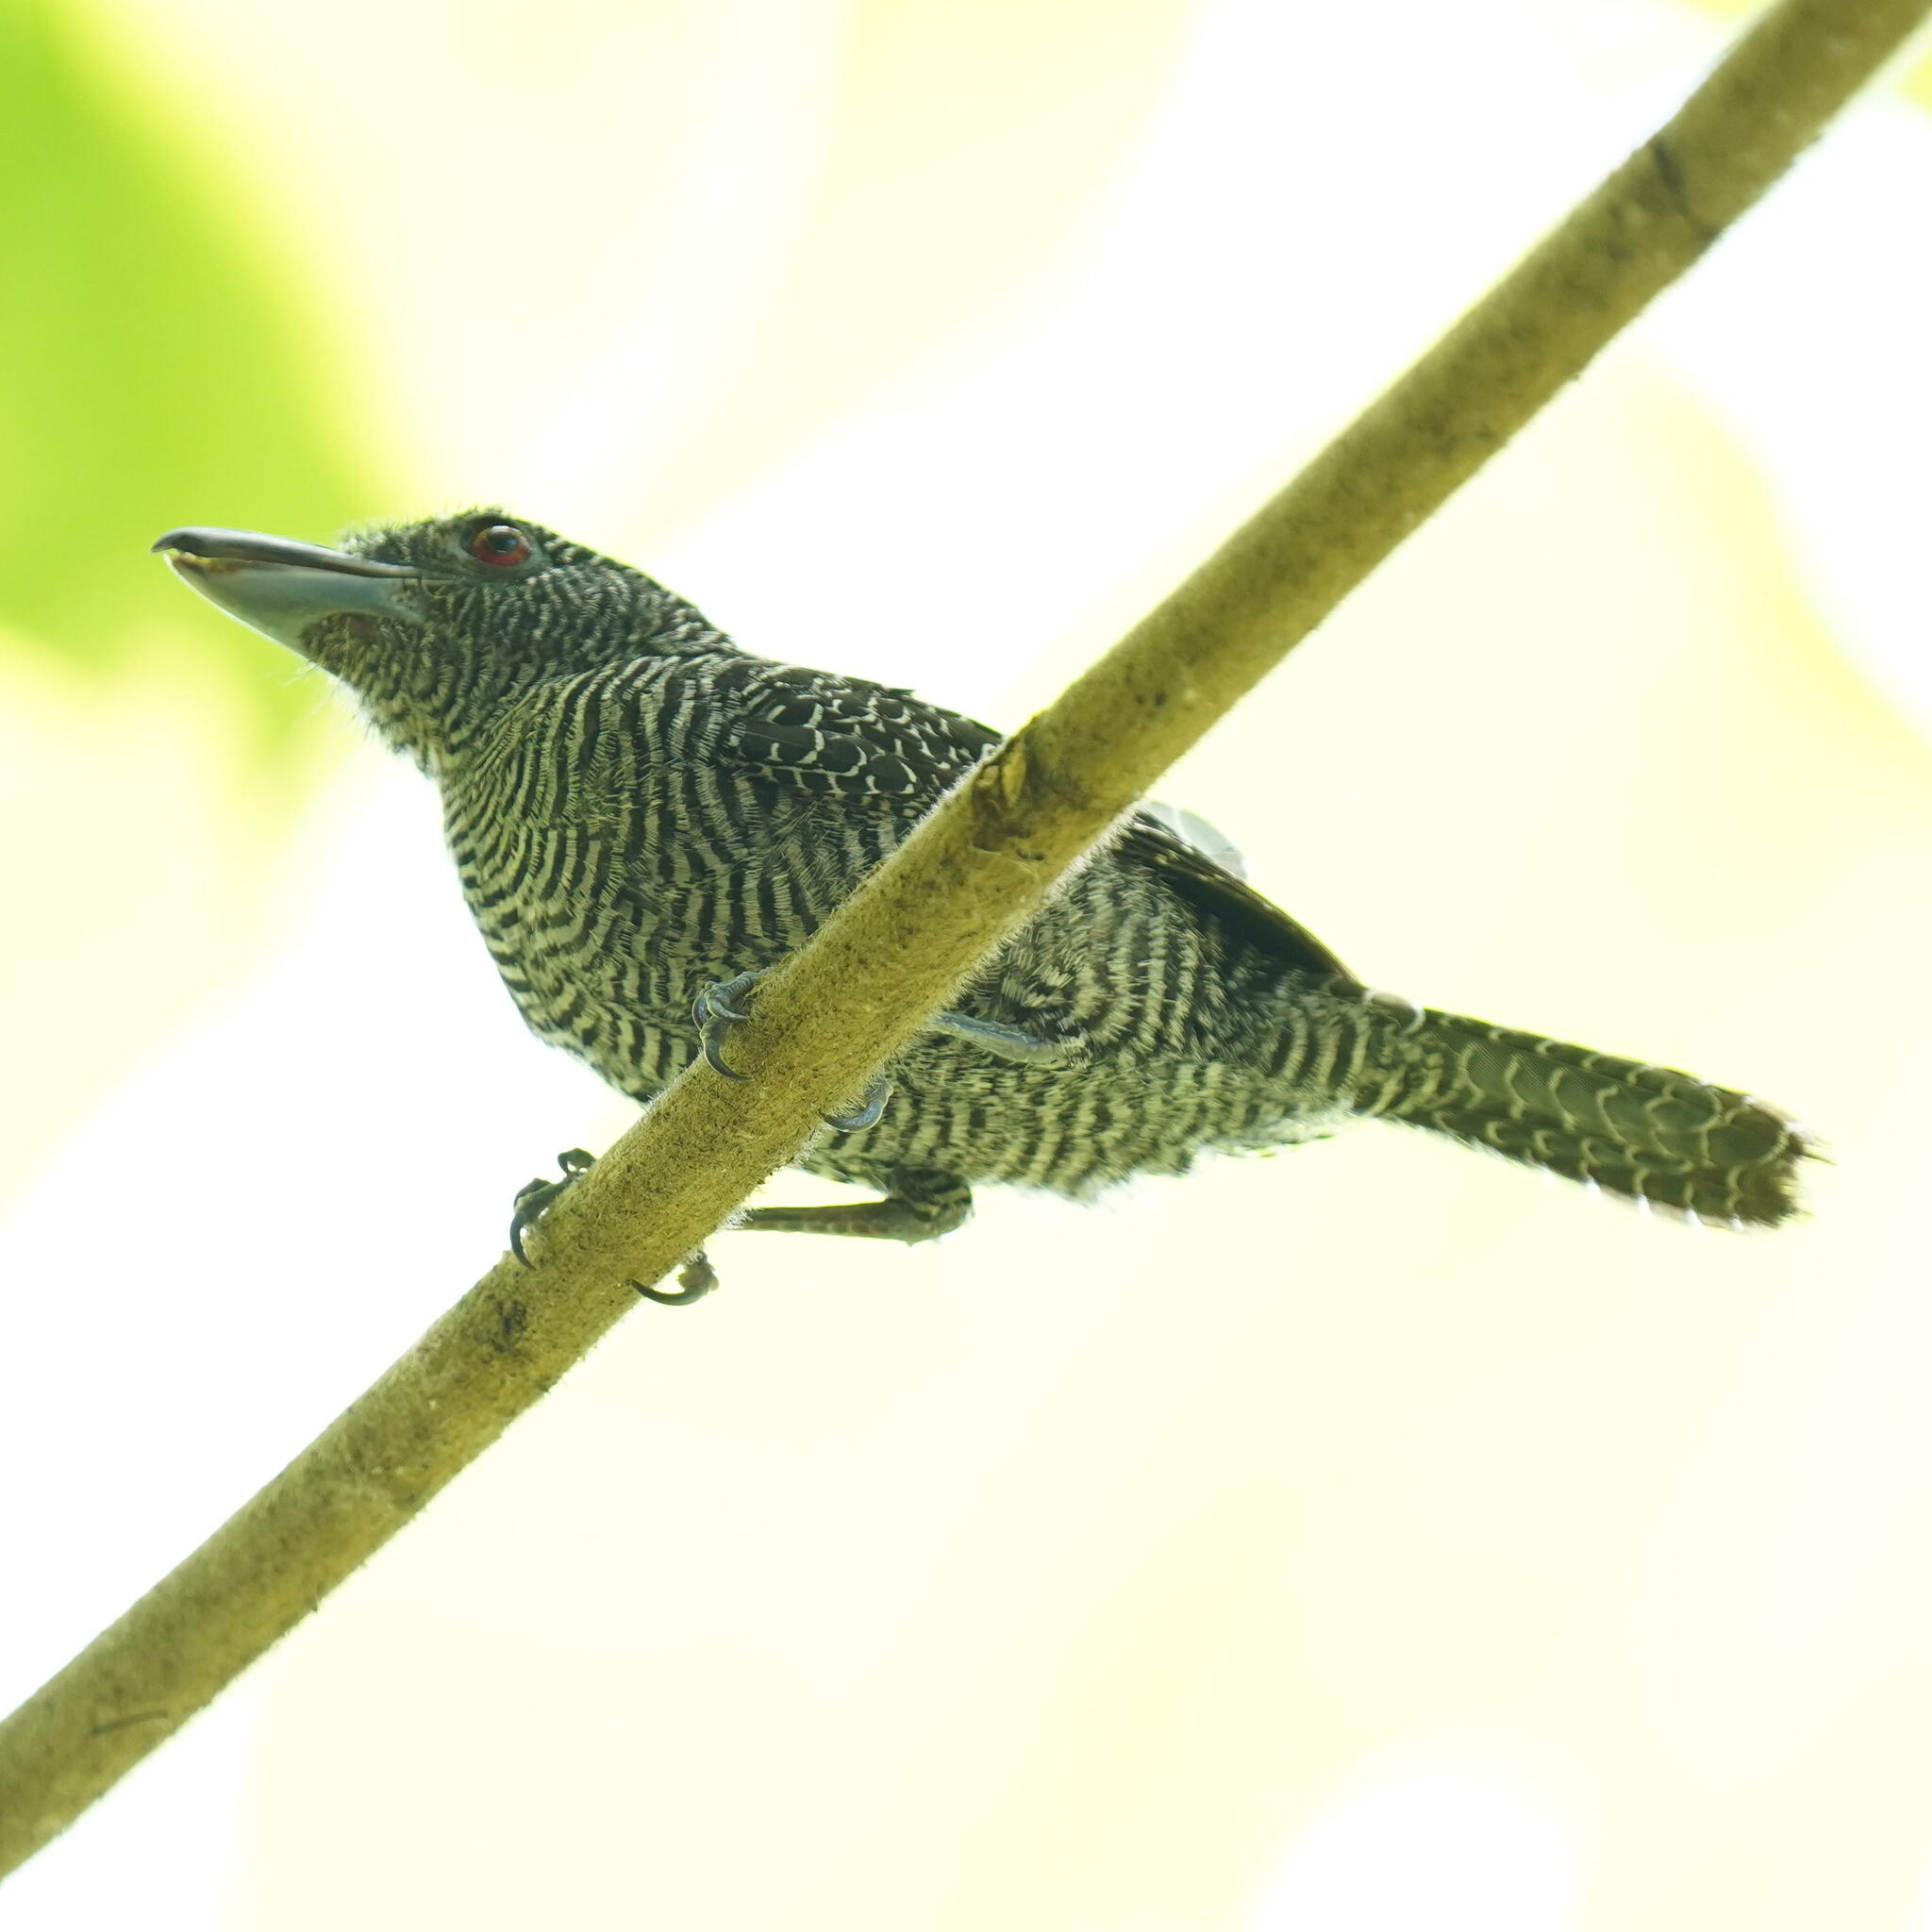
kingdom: Animalia
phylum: Chordata
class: Aves
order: Passeriformes
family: Thamnophilidae
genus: Cymbilaimus
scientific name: Cymbilaimus lineatus
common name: Fasciated antshrike
